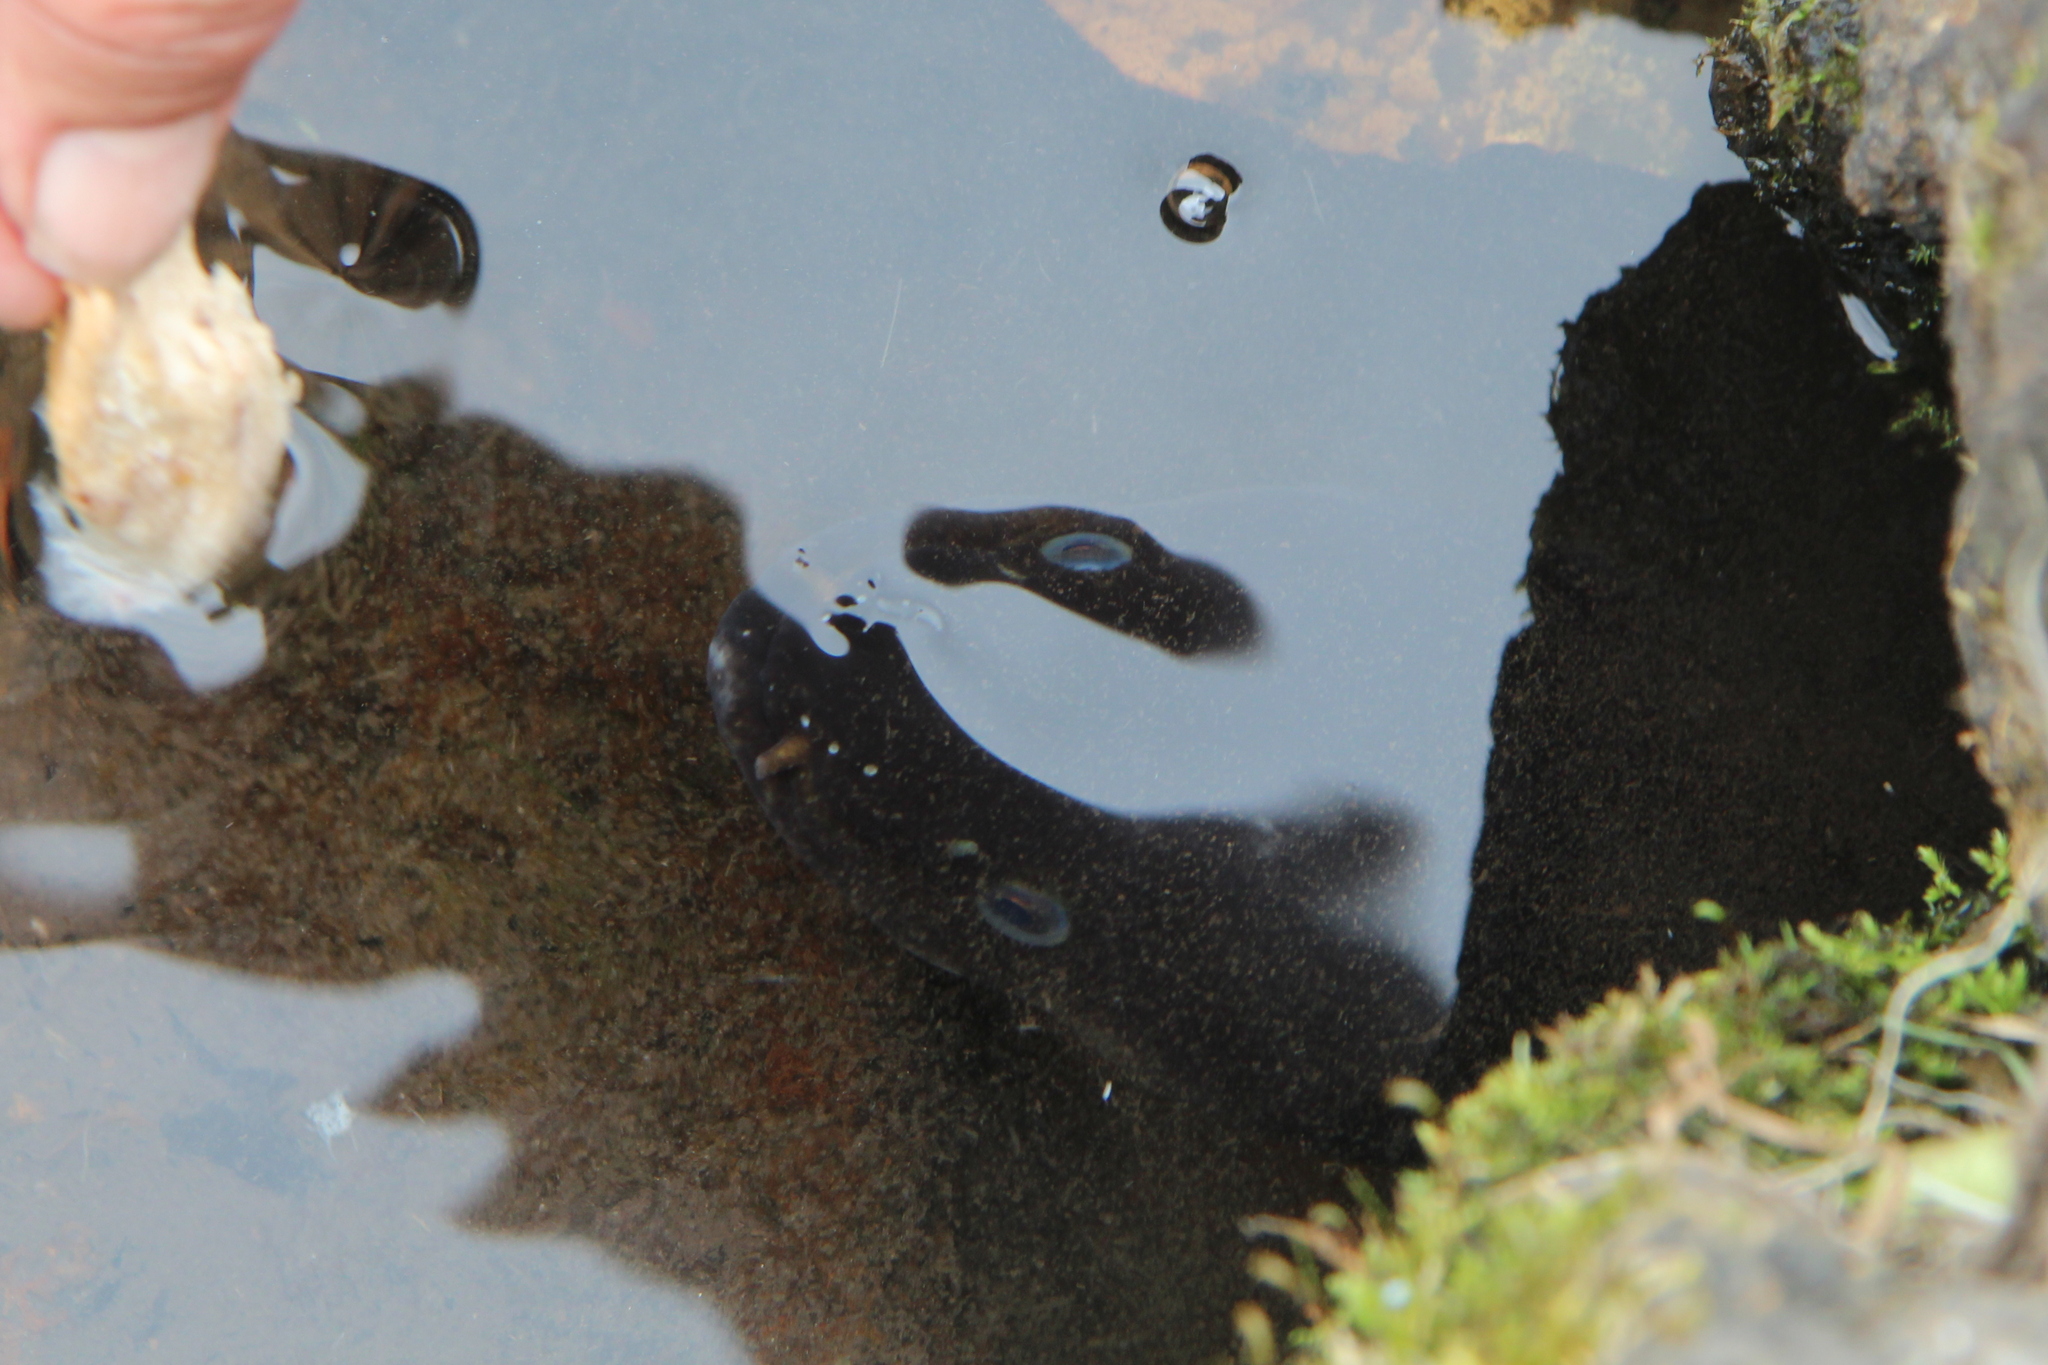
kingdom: Animalia
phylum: Chordata
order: Anguilliformes
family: Anguillidae
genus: Anguilla
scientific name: Anguilla dieffenbachii
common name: New zealand longfin eel
